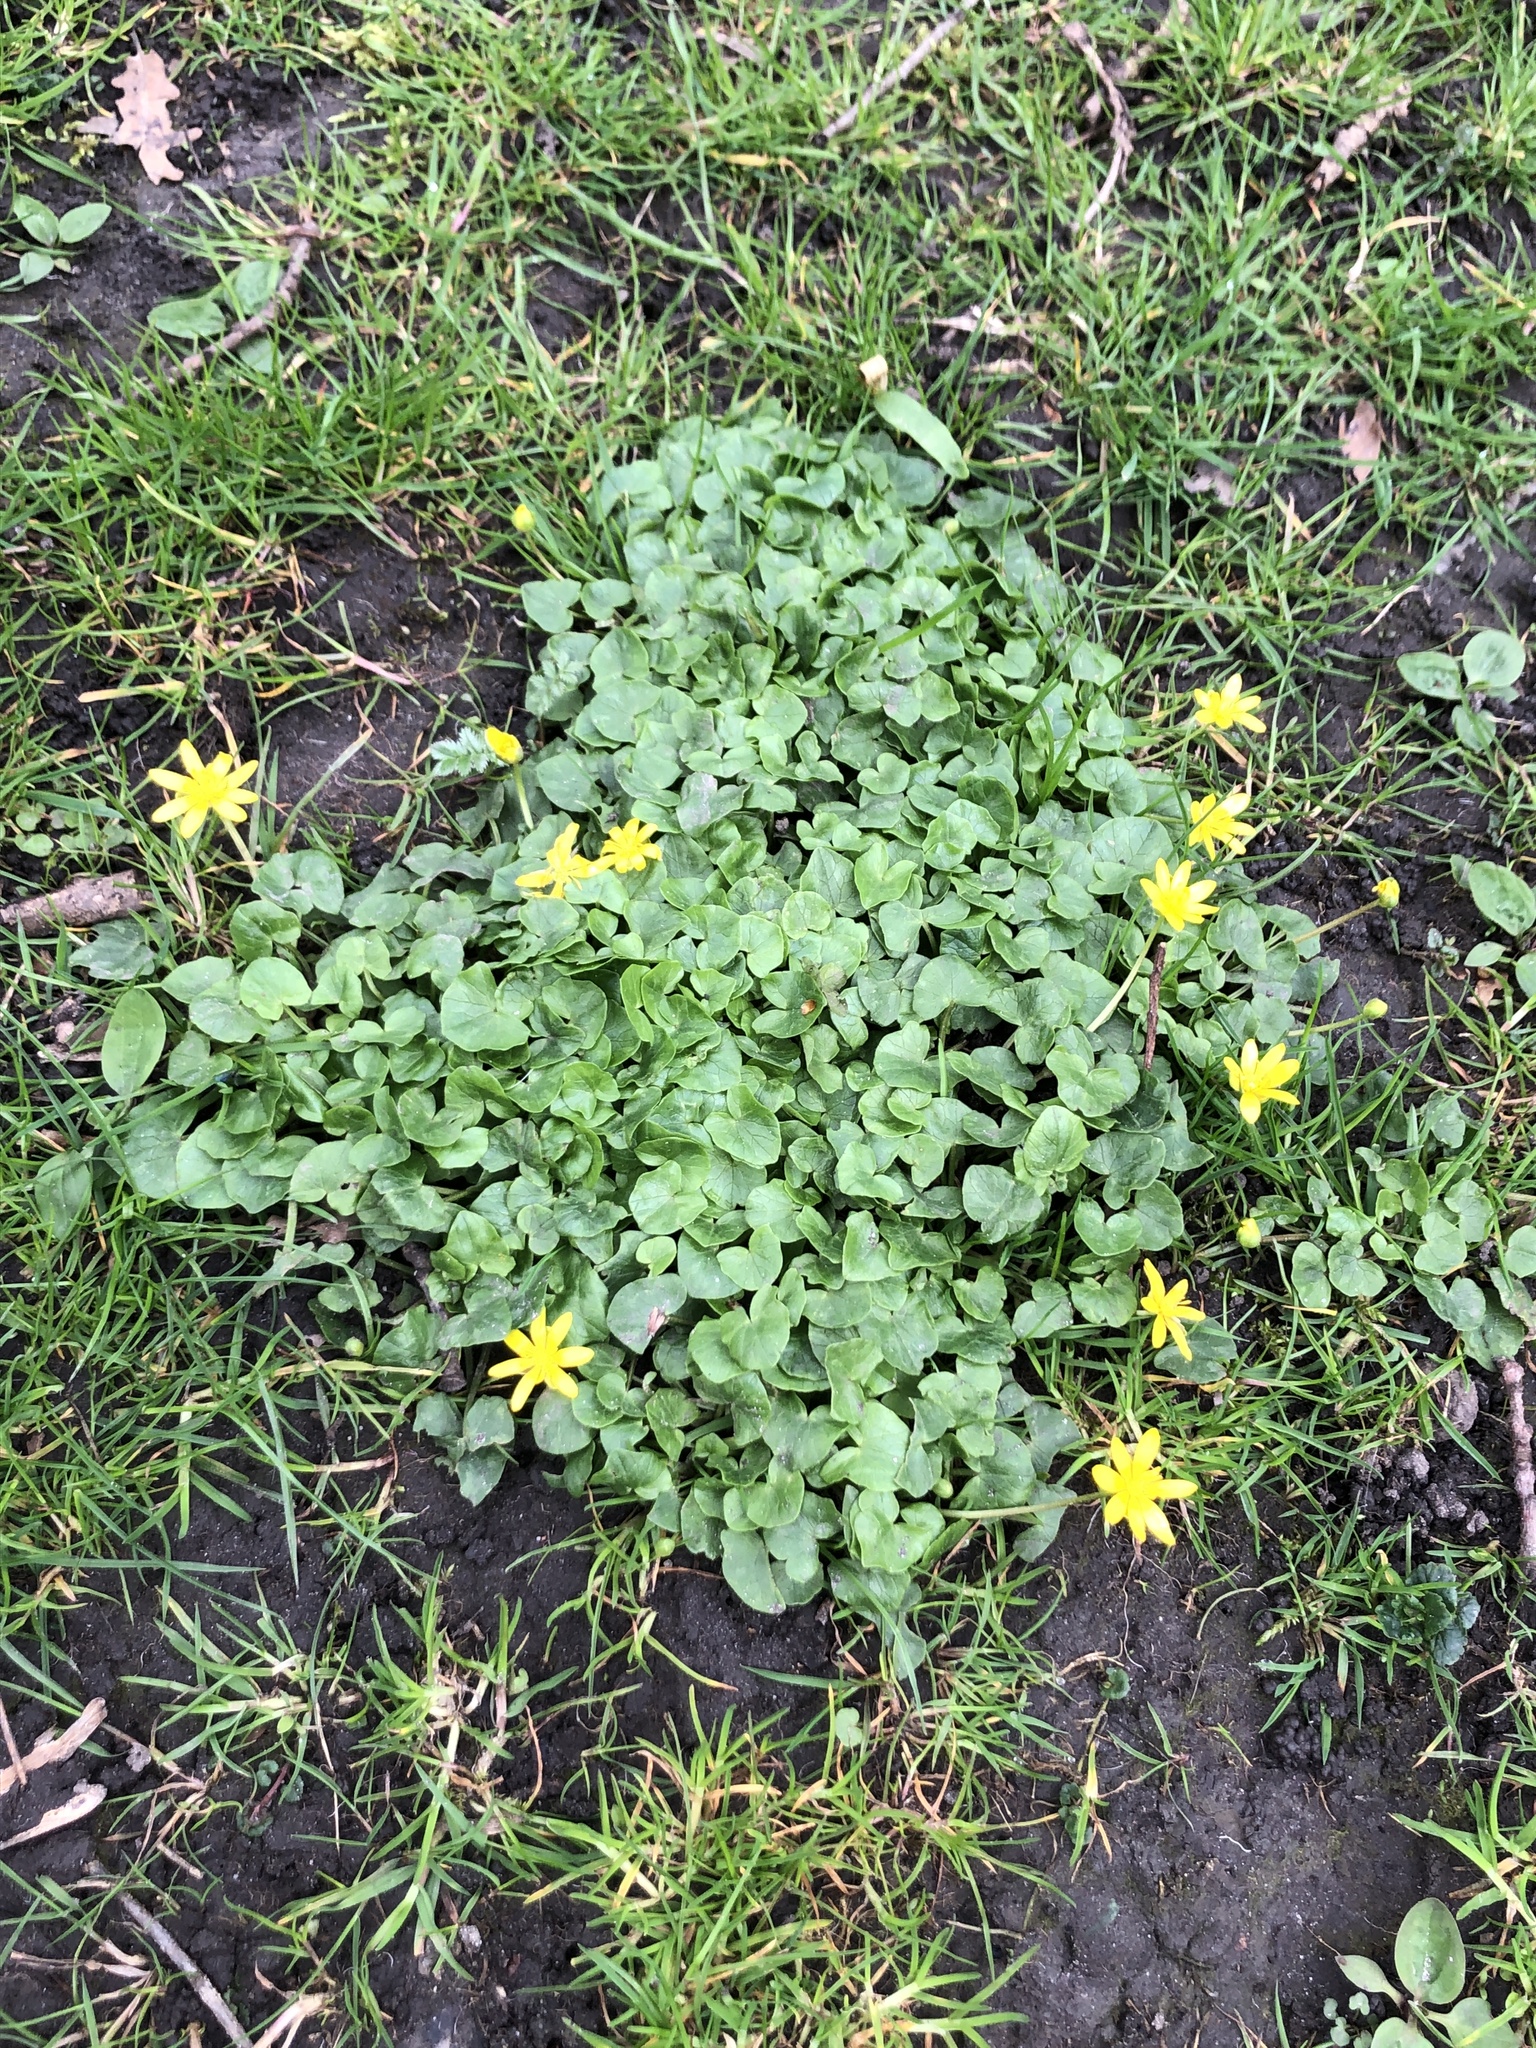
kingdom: Plantae
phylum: Tracheophyta
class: Magnoliopsida
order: Ranunculales
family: Ranunculaceae
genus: Ficaria
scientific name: Ficaria verna
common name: Lesser celandine
